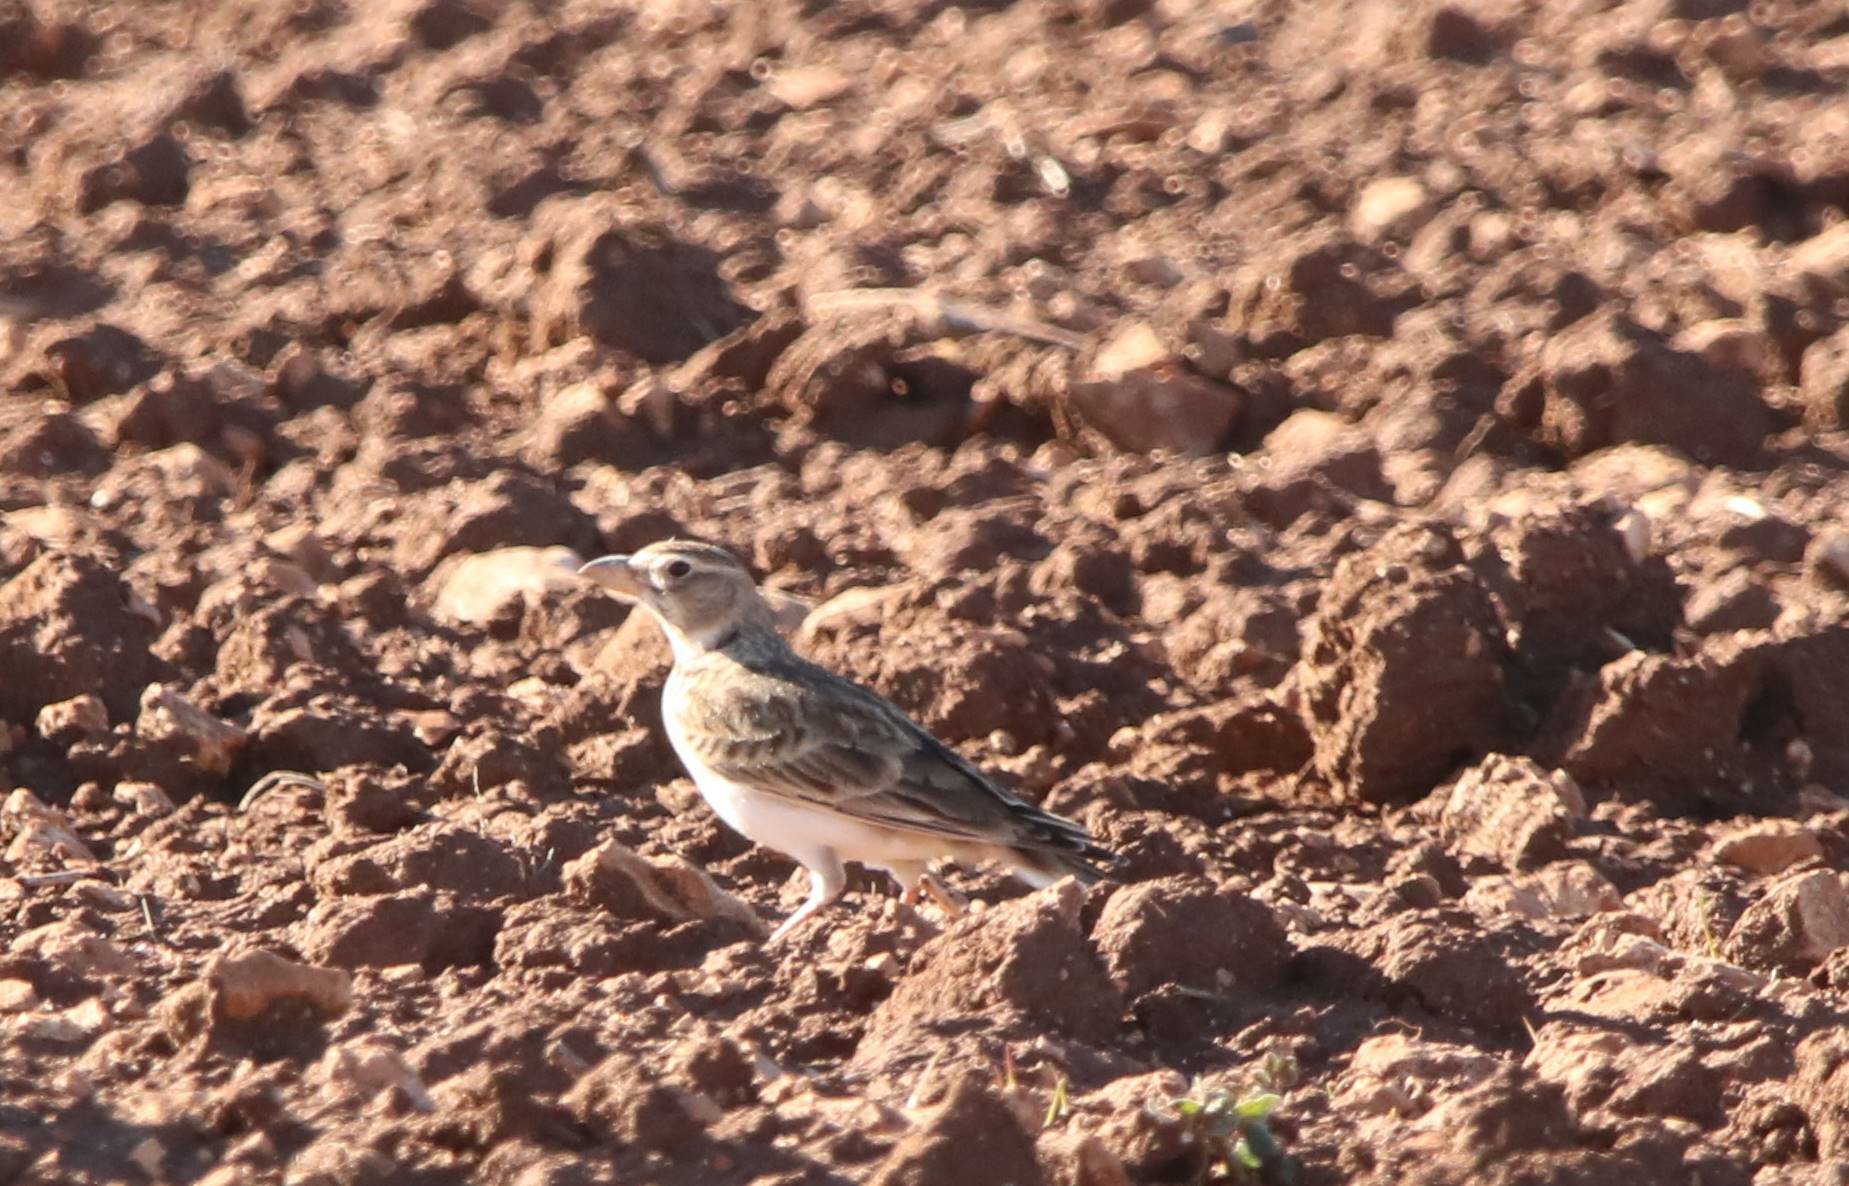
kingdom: Animalia
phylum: Chordata
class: Aves
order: Passeriformes
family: Alaudidae
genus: Melanocorypha
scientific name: Melanocorypha calandra
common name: Calandra lark
